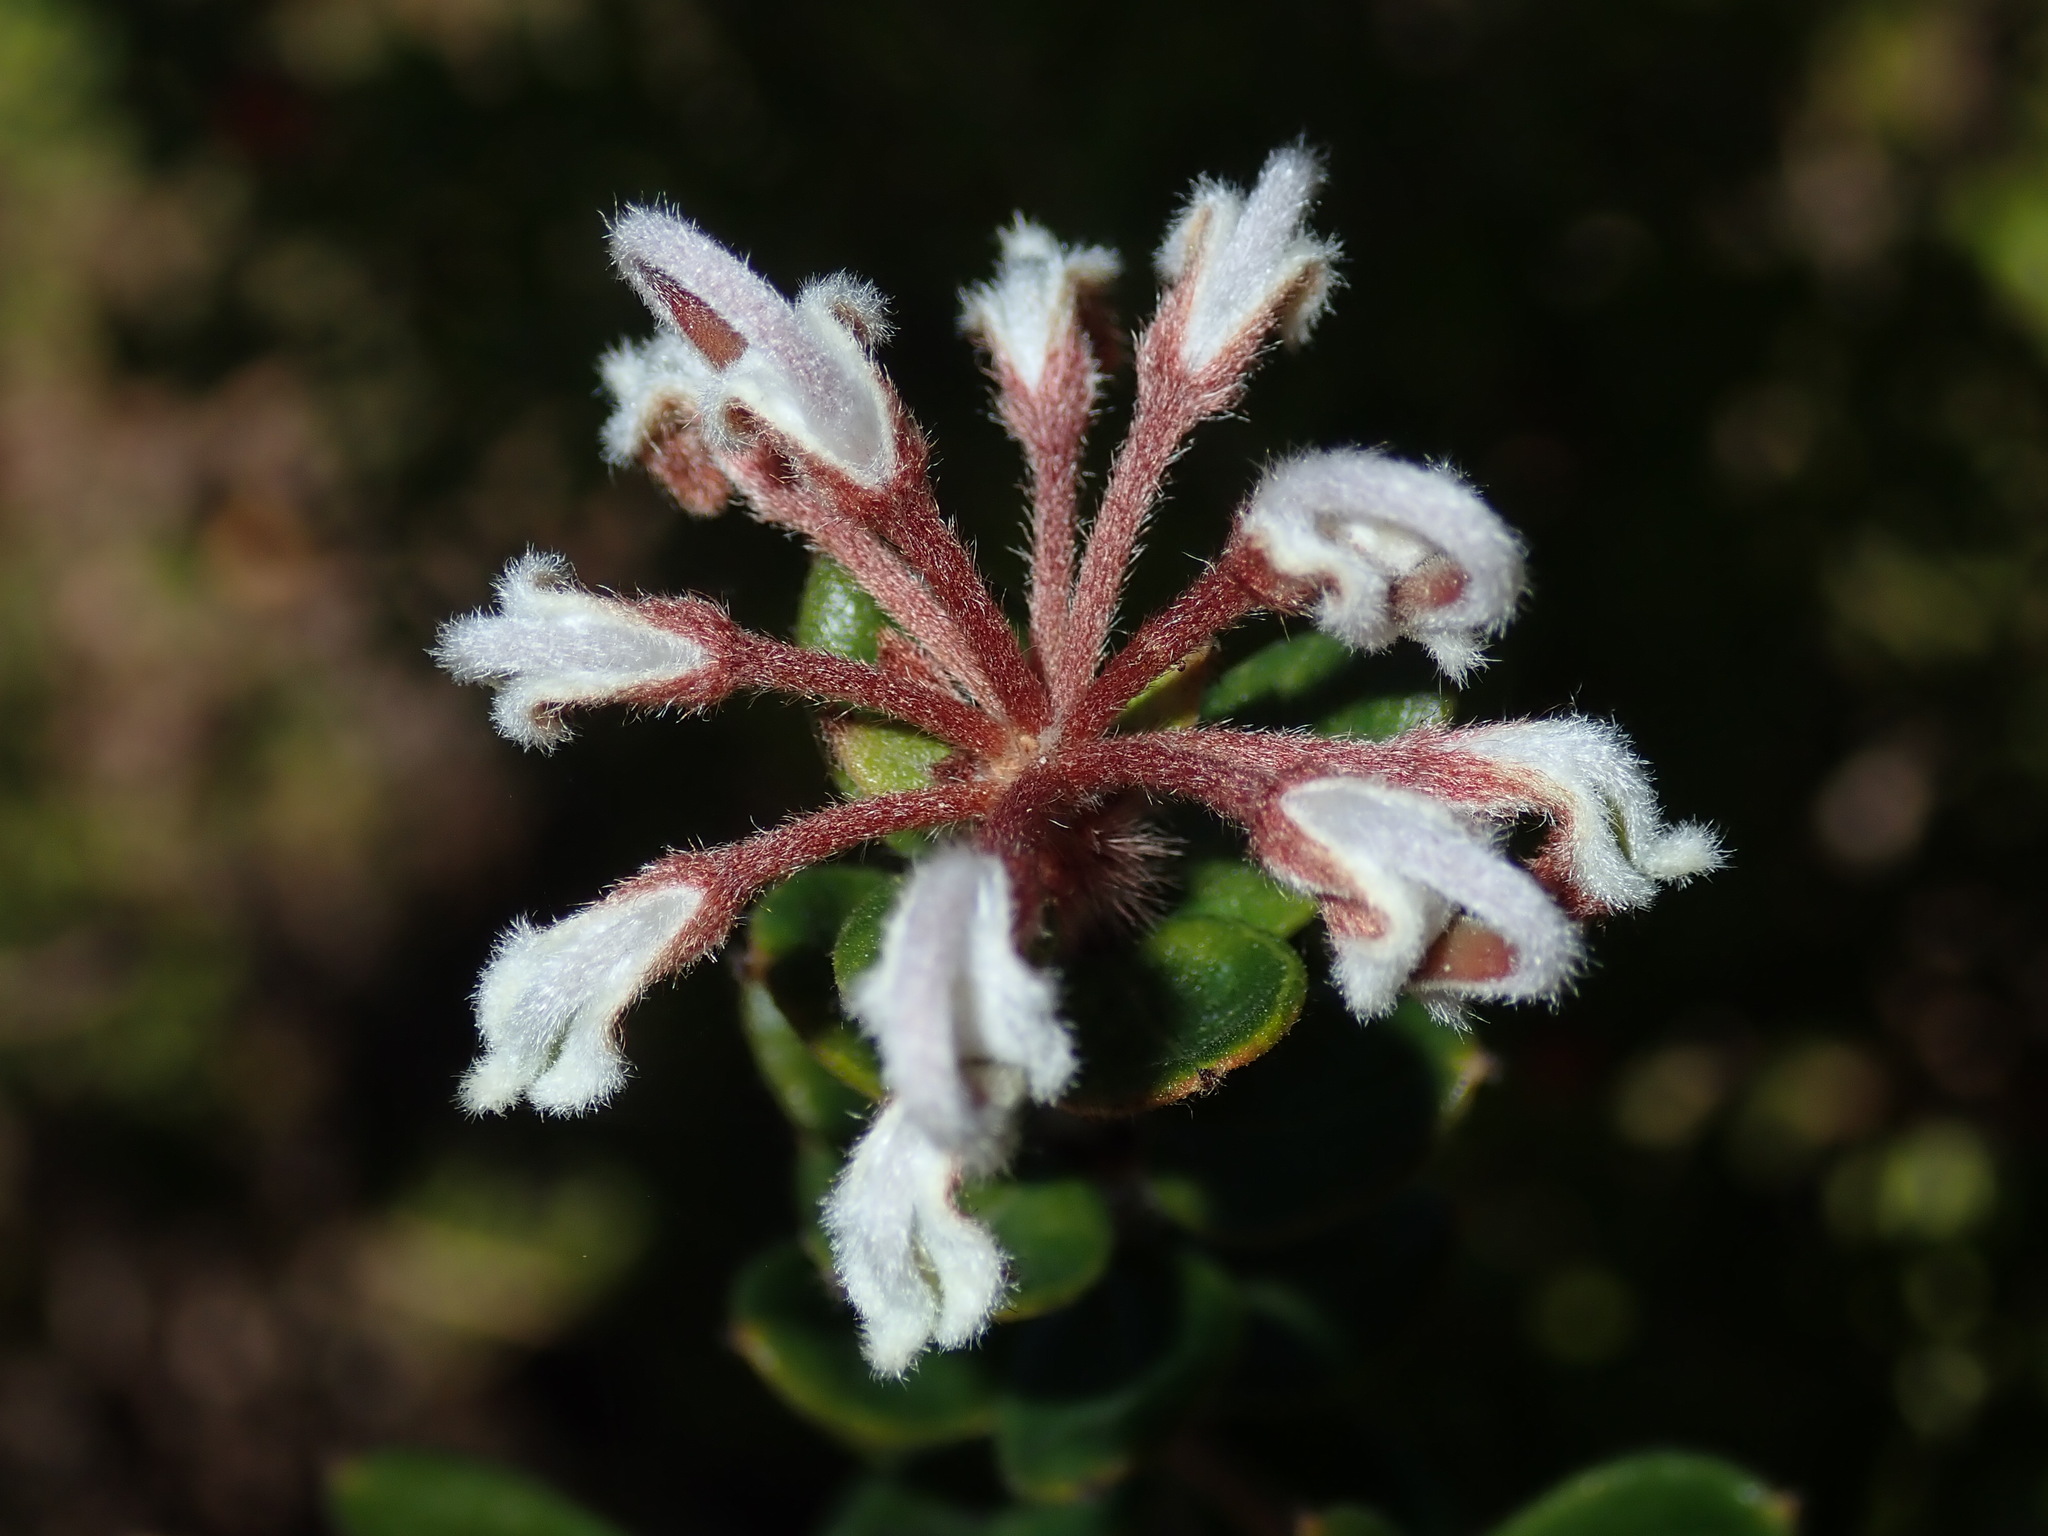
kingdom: Plantae
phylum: Tracheophyta
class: Magnoliopsida
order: Proteales
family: Proteaceae
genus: Grevillea
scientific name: Grevillea buxifolia
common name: Grey spiderflower
